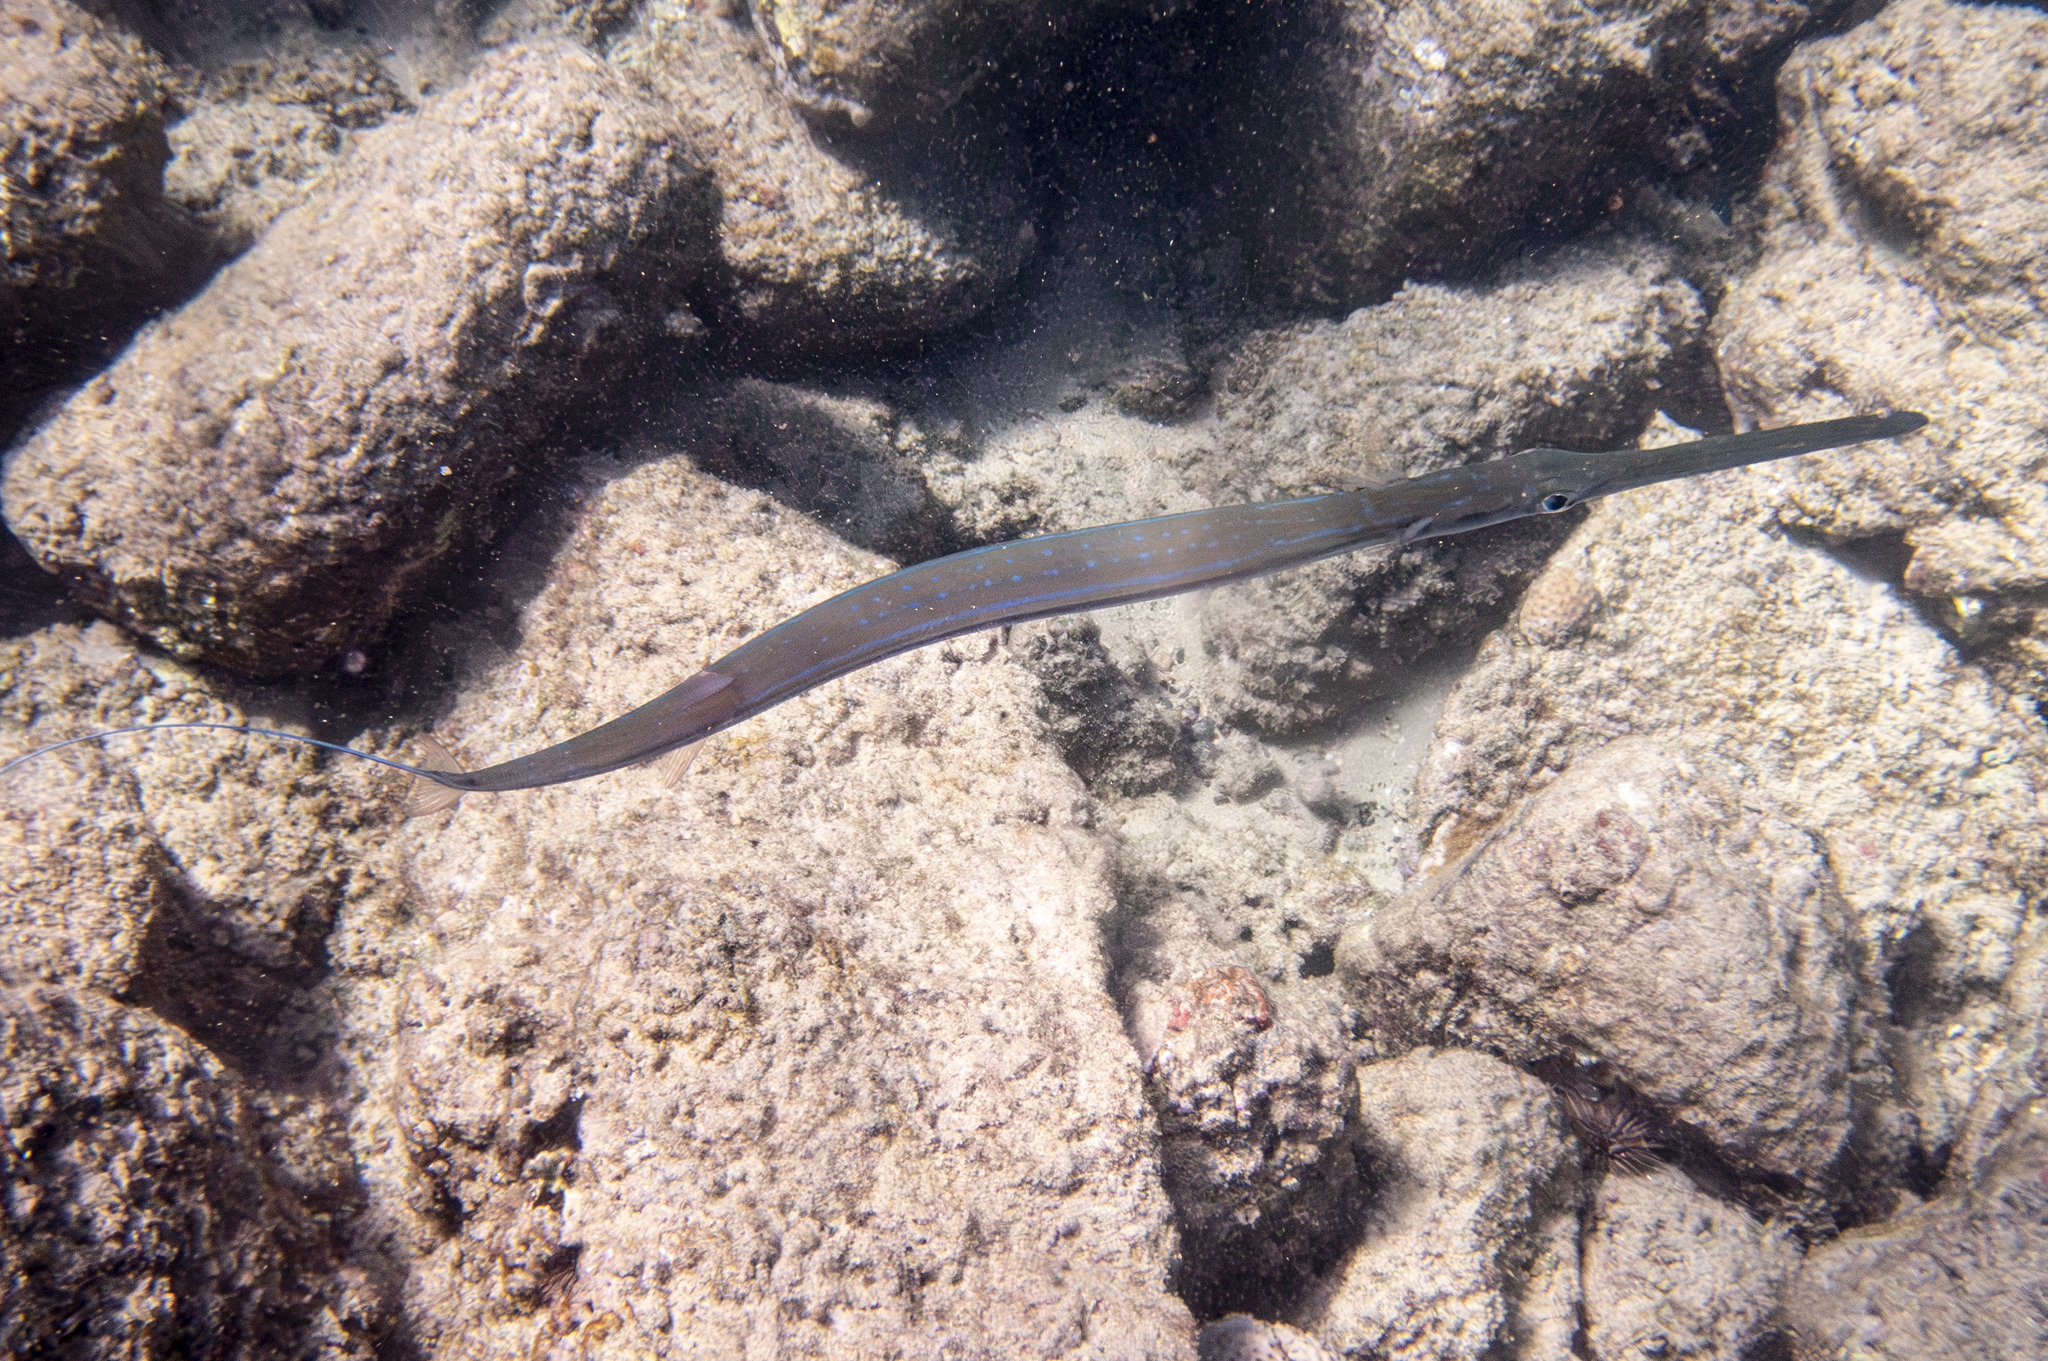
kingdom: Animalia
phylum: Chordata
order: Syngnathiformes
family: Fistulariidae
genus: Fistularia
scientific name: Fistularia commersonii
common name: Bluespotted cornetfish
